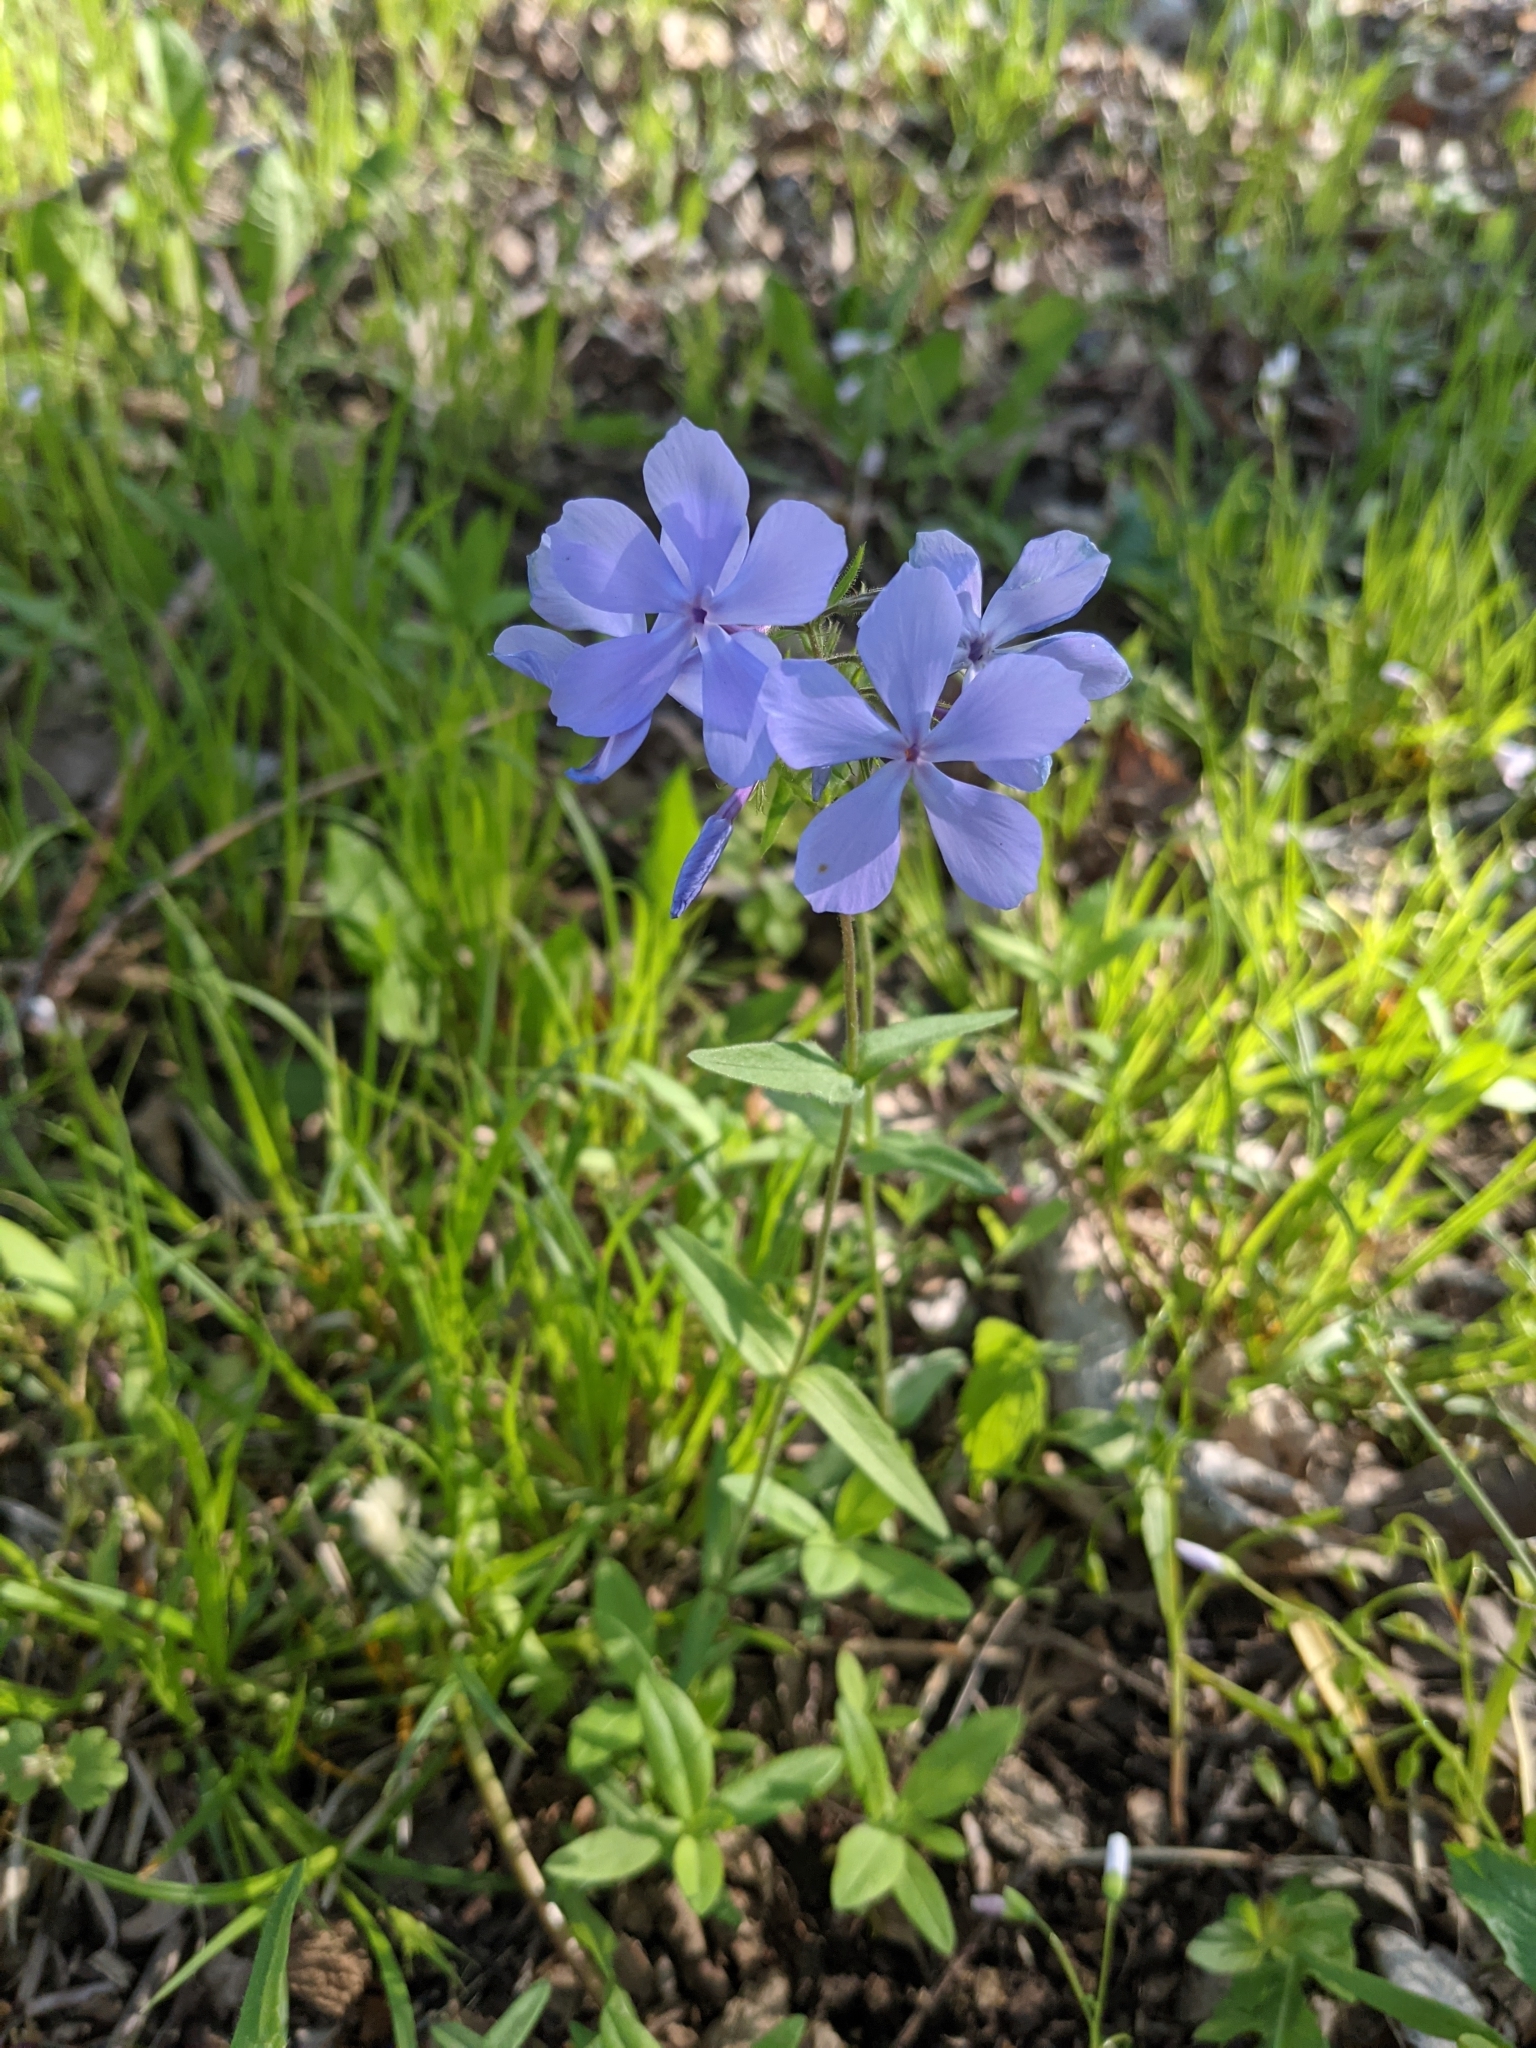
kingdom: Plantae
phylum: Tracheophyta
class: Magnoliopsida
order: Ericales
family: Polemoniaceae
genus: Phlox
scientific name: Phlox divaricata
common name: Blue phlox
